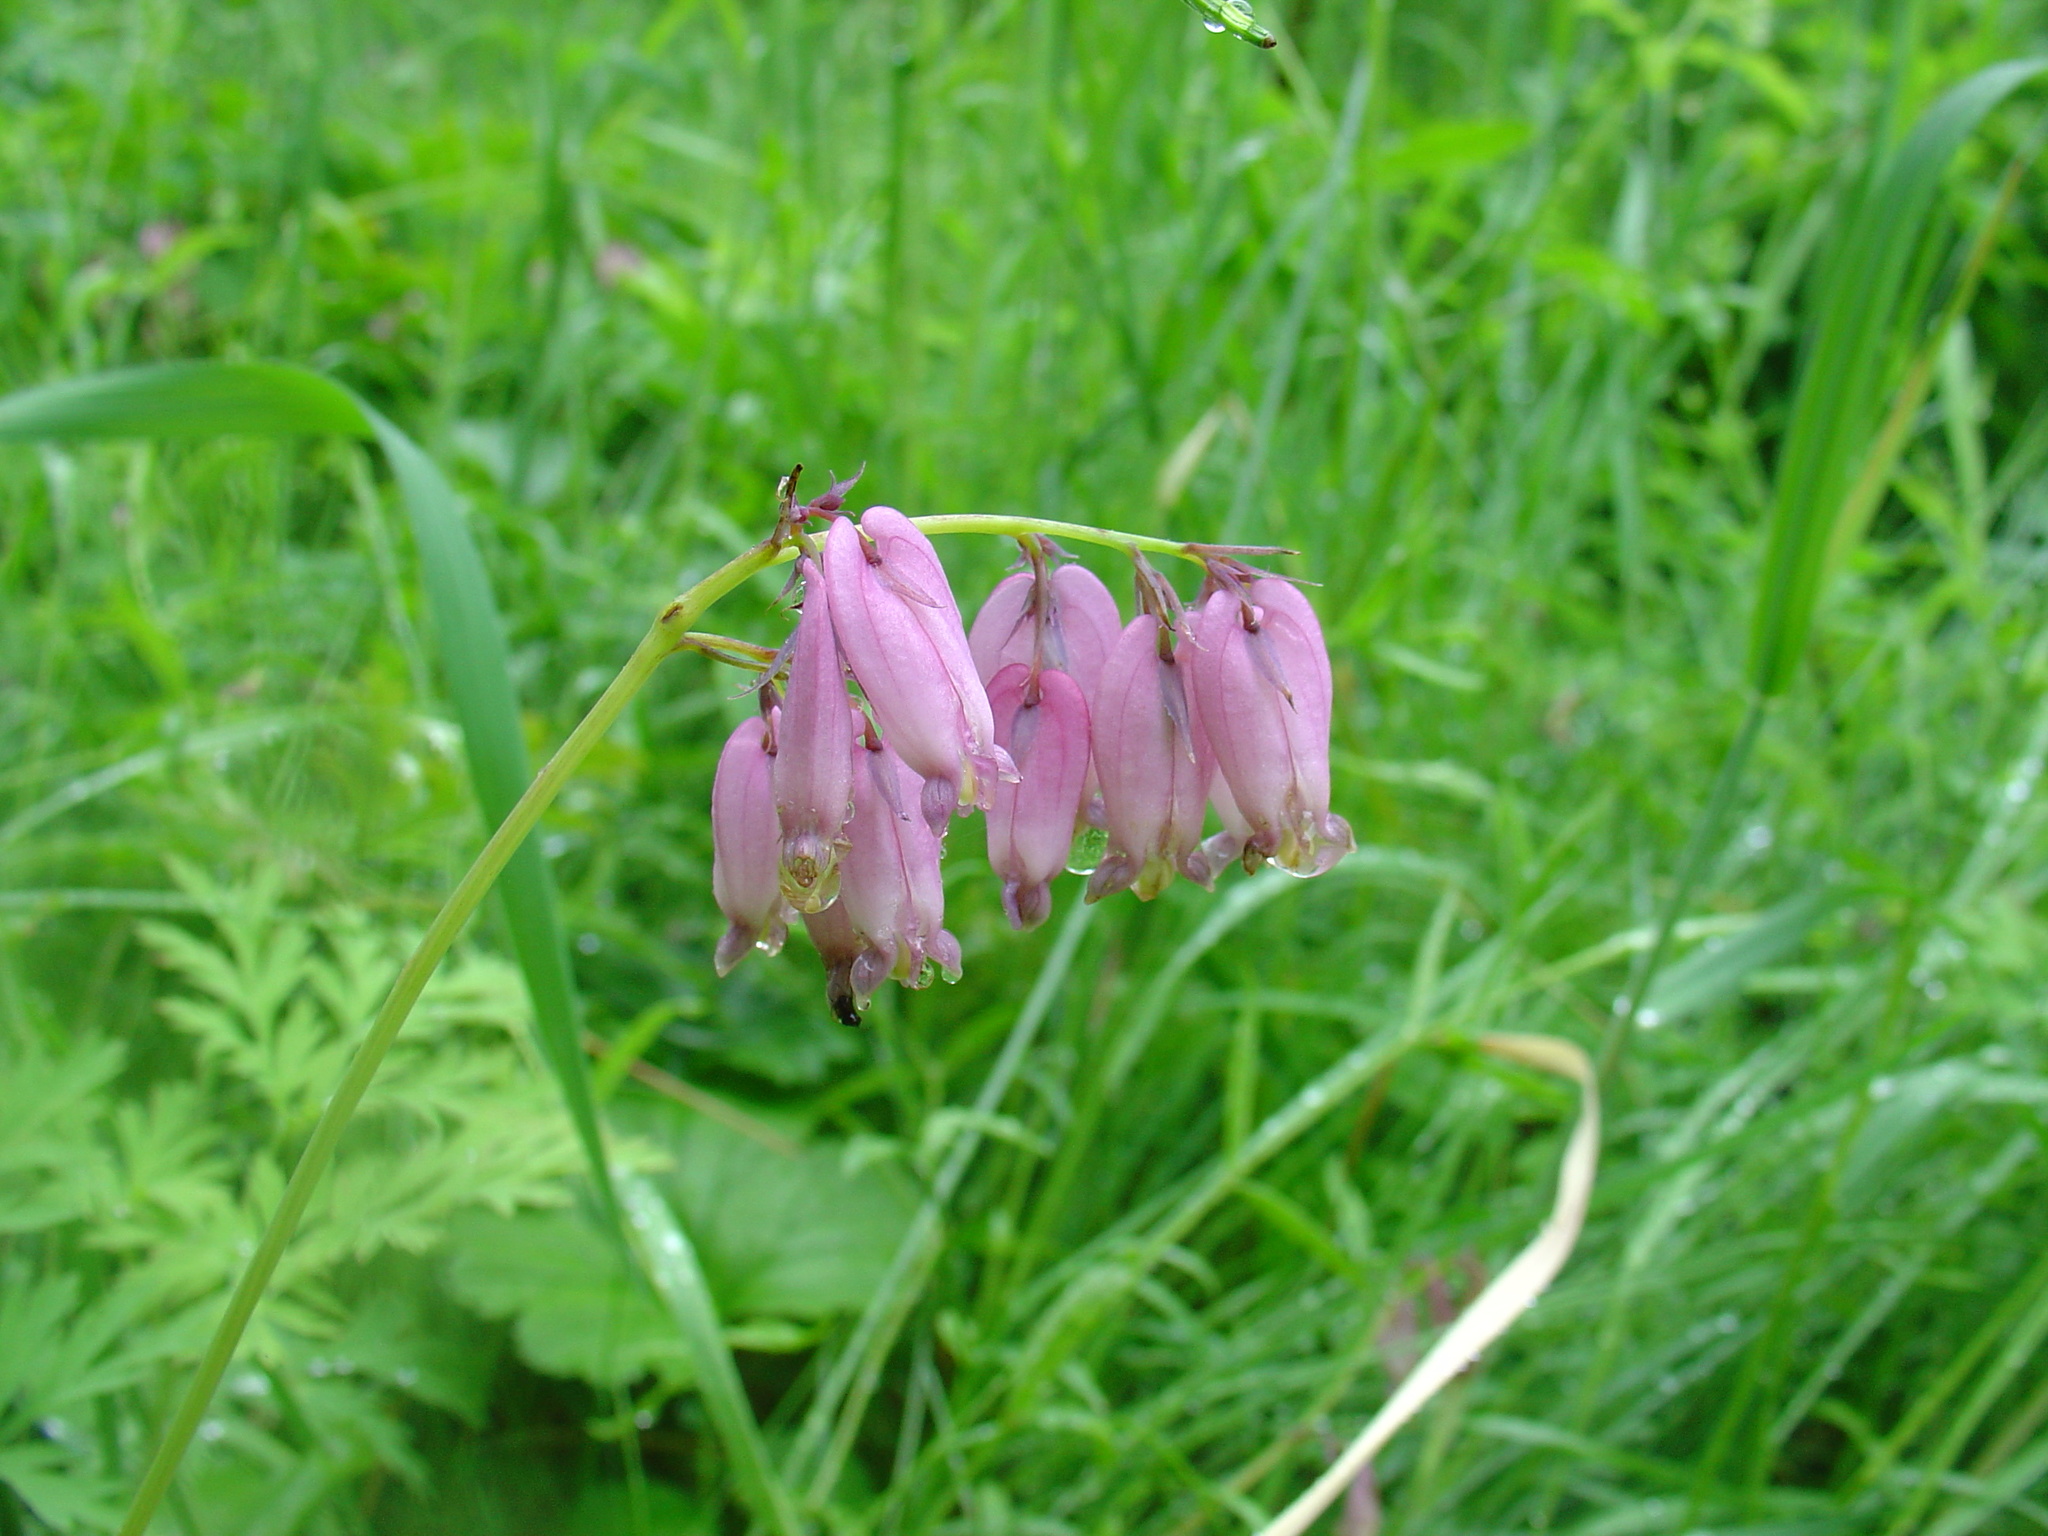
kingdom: Plantae
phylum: Tracheophyta
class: Magnoliopsida
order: Ranunculales
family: Papaveraceae
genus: Dicentra
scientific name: Dicentra formosa
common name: Bleeding-heart
